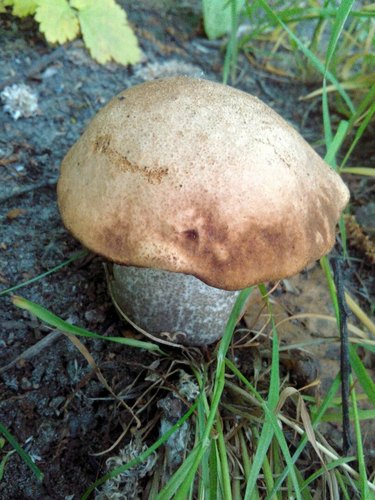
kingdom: Fungi
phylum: Basidiomycota
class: Agaricomycetes
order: Boletales
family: Boletaceae
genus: Leccinum
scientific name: Leccinum scabrum
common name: Blushing bolete
